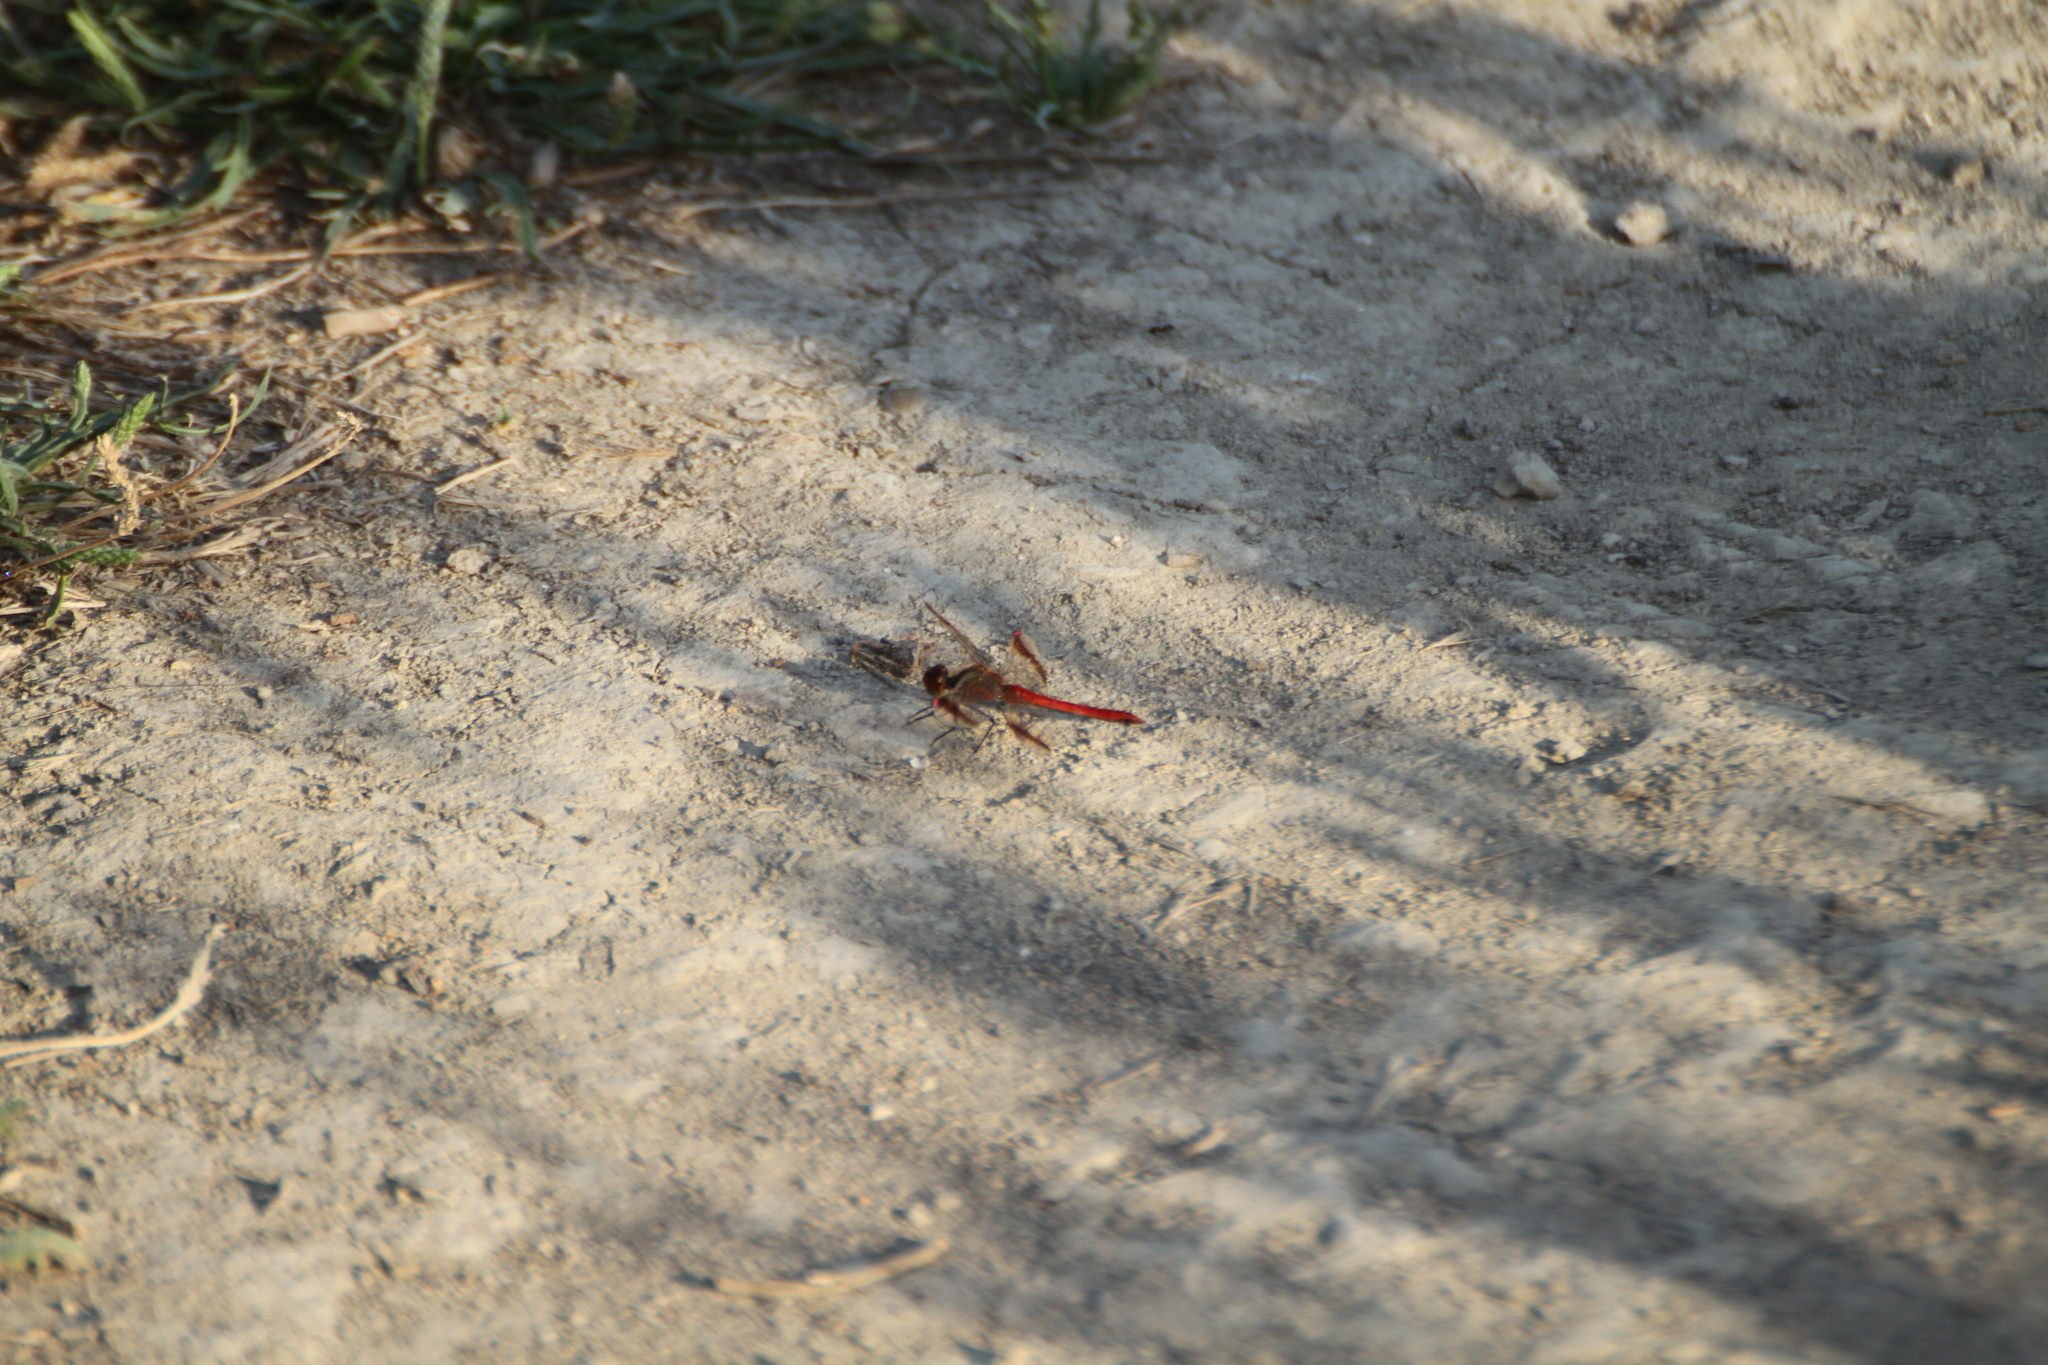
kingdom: Animalia
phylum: Arthropoda
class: Insecta
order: Odonata
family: Libellulidae
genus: Sympetrum
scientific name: Sympetrum pedemontanum
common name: Banded darter
